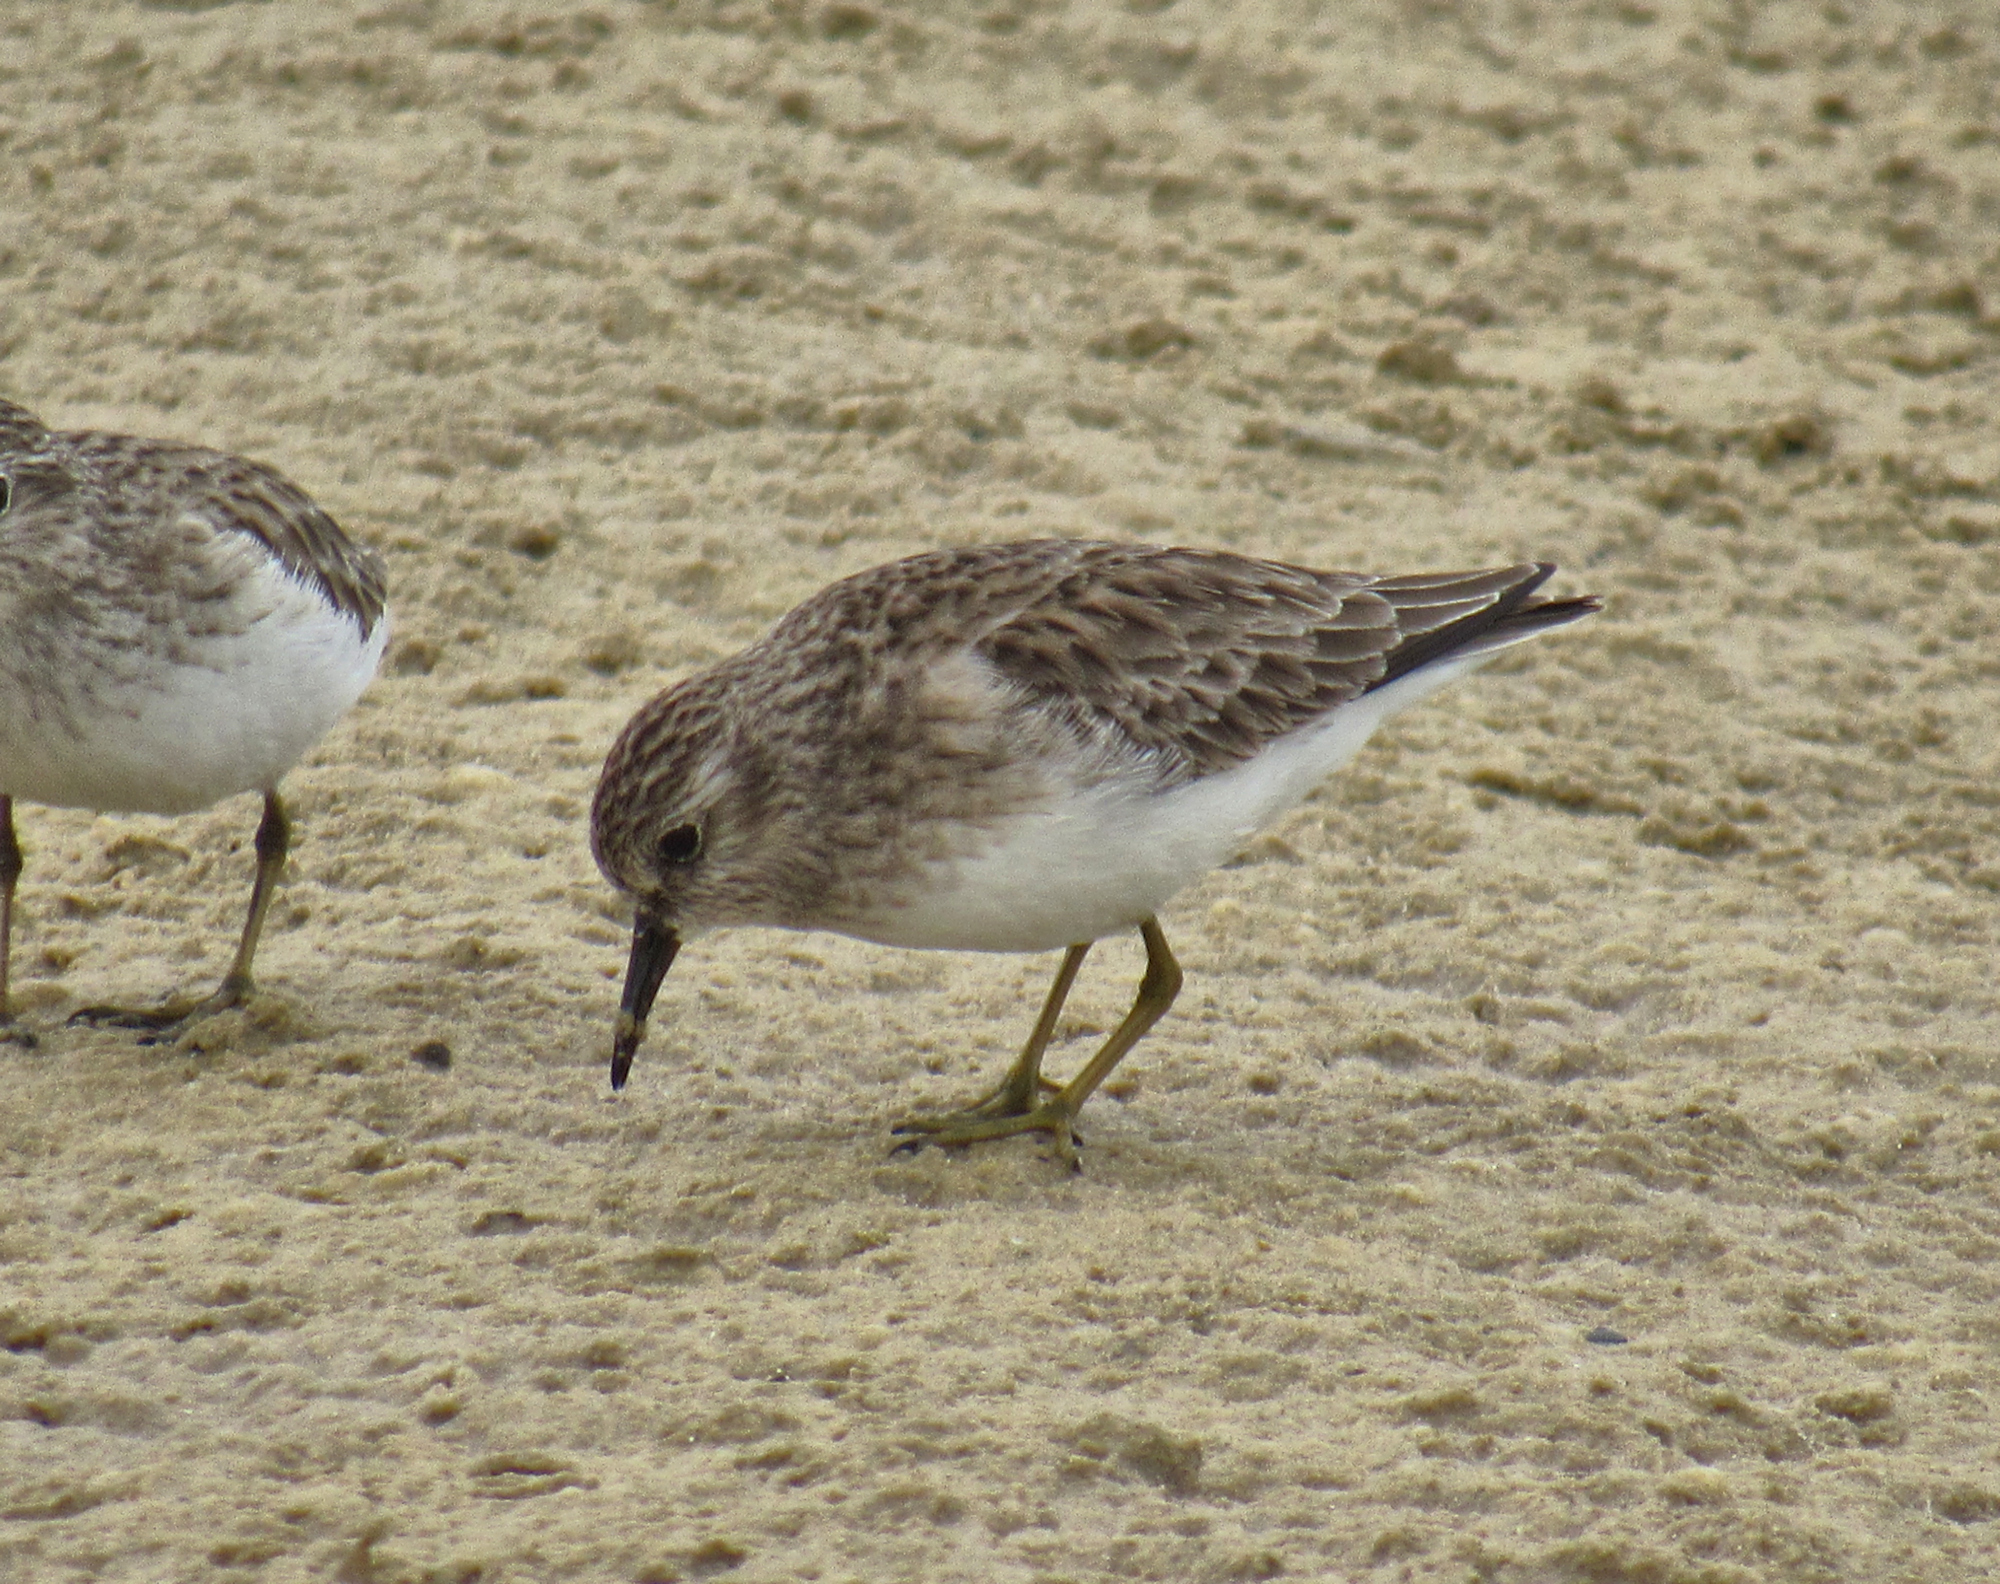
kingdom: Animalia
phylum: Chordata
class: Aves
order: Charadriiformes
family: Scolopacidae
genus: Calidris
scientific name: Calidris minutilla
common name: Least sandpiper
